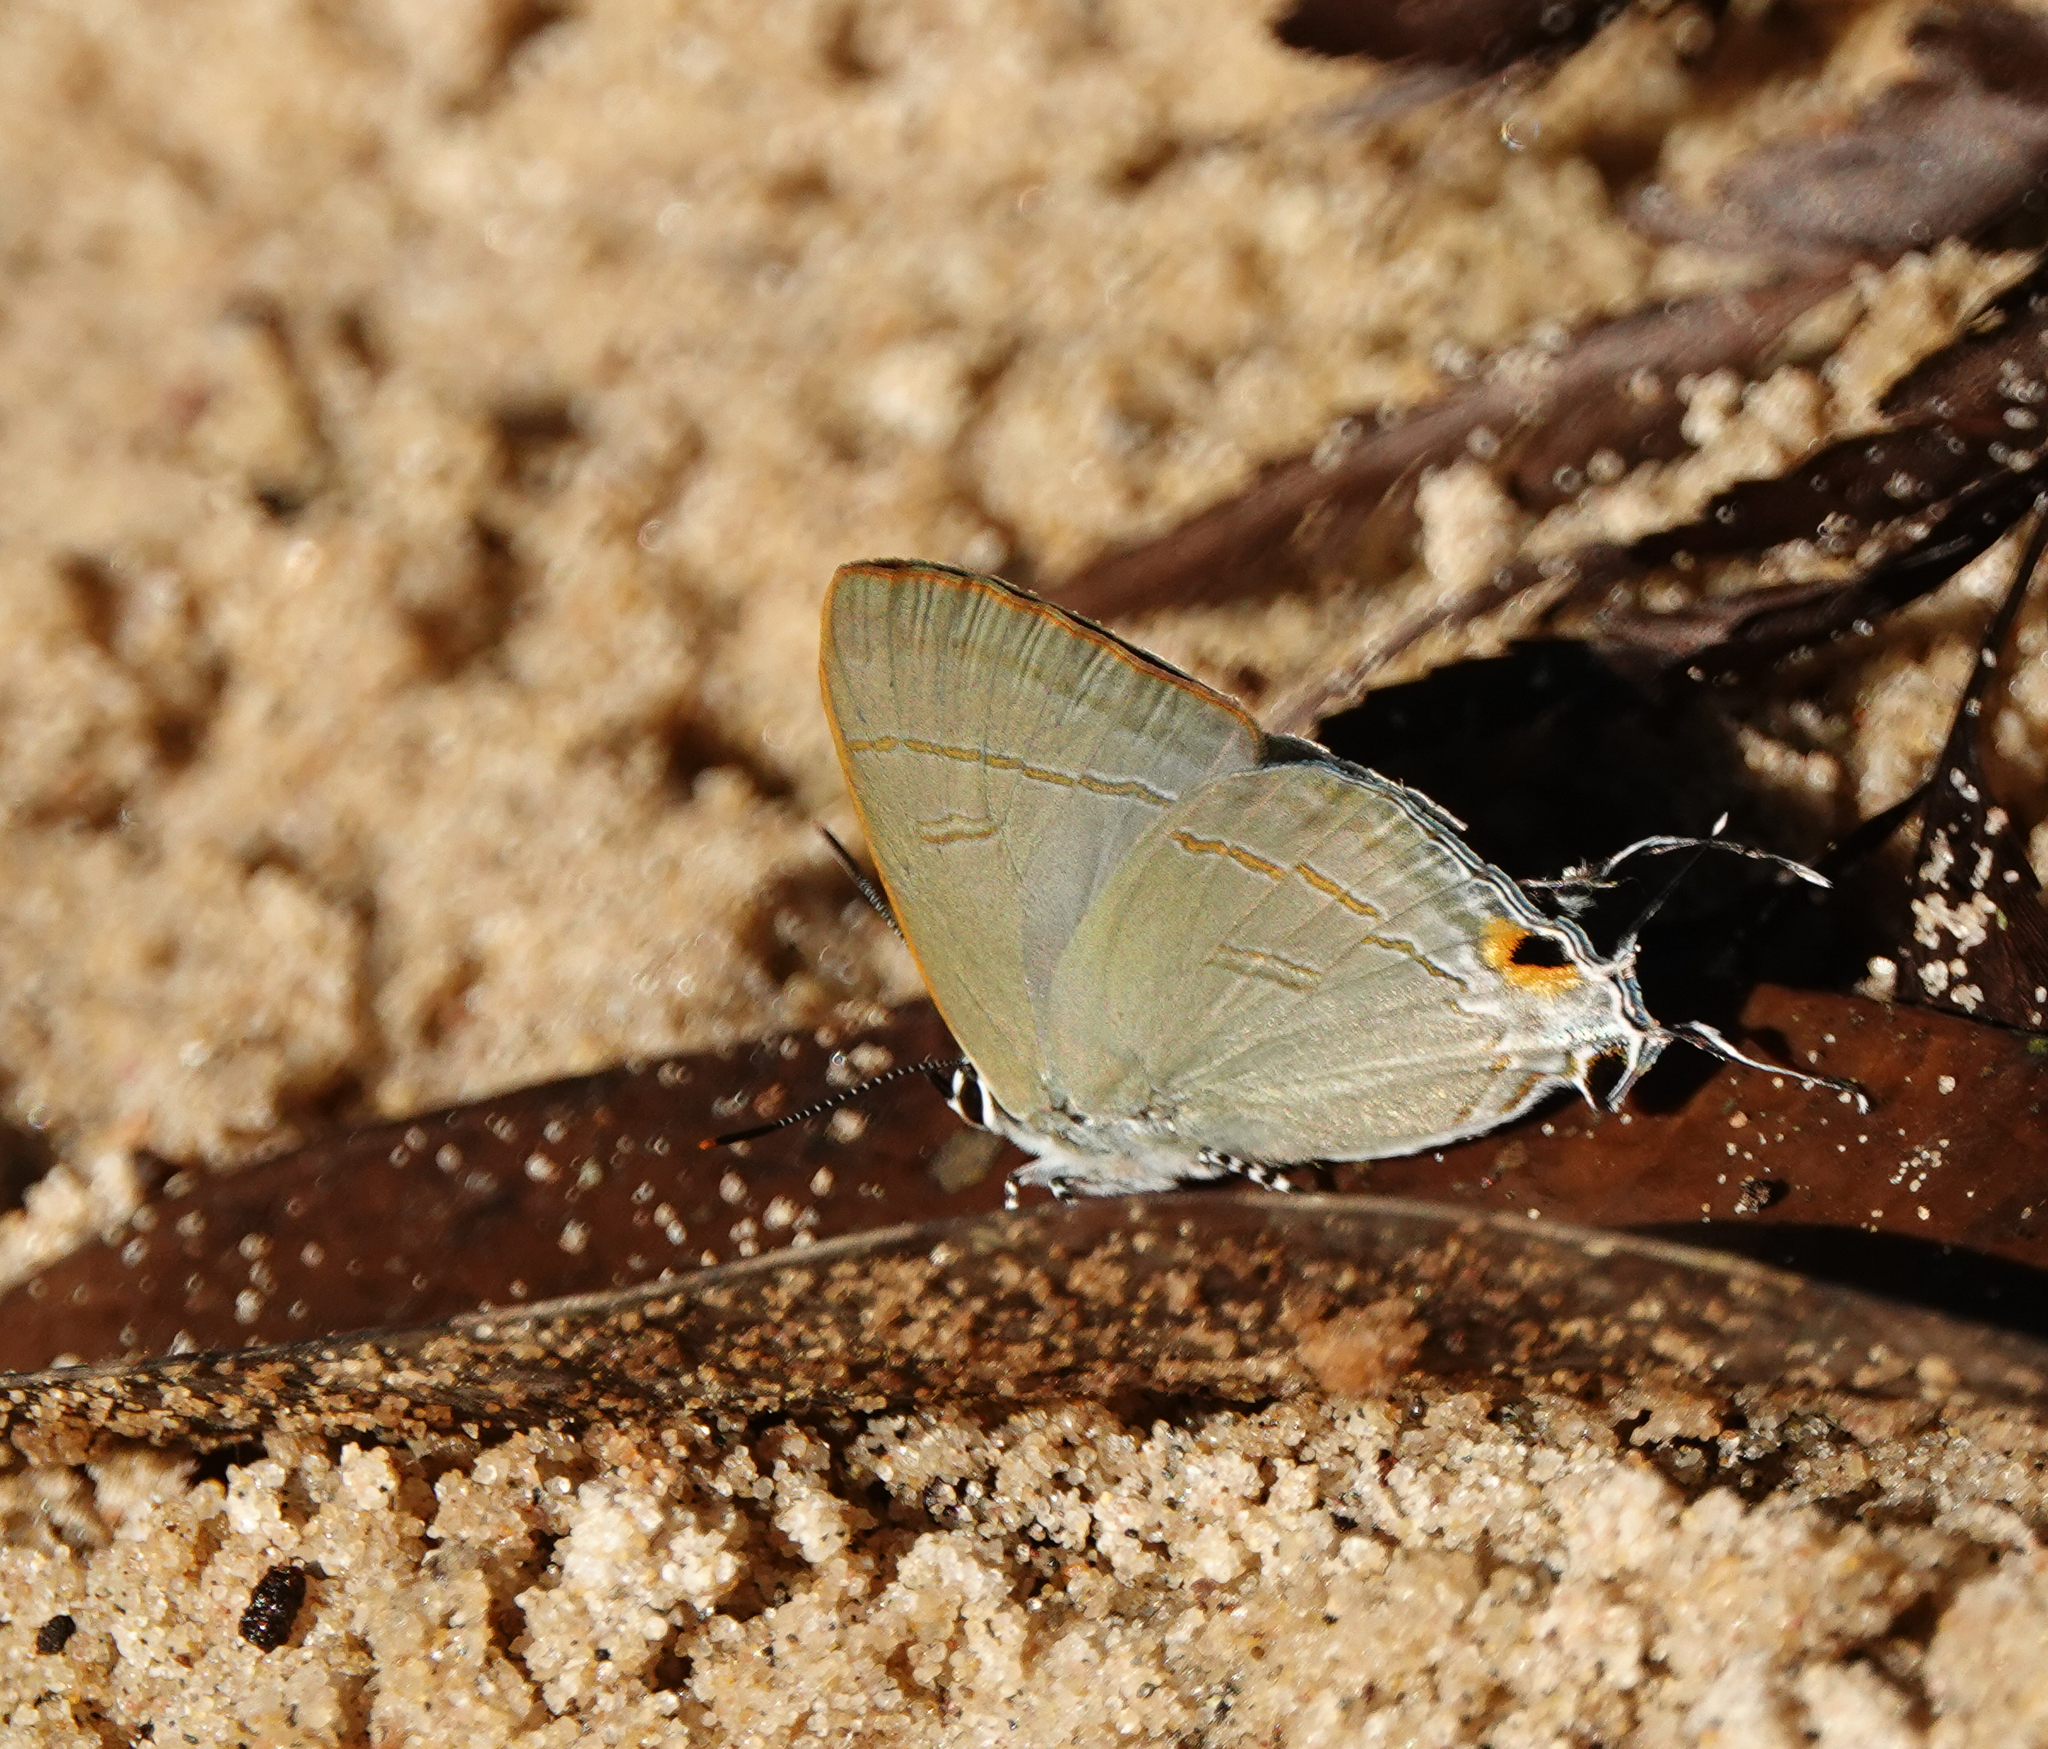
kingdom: Animalia
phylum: Arthropoda
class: Insecta
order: Lepidoptera
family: Lycaenidae
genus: Hypolycaena
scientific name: Hypolycaena erylus
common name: Common tit
